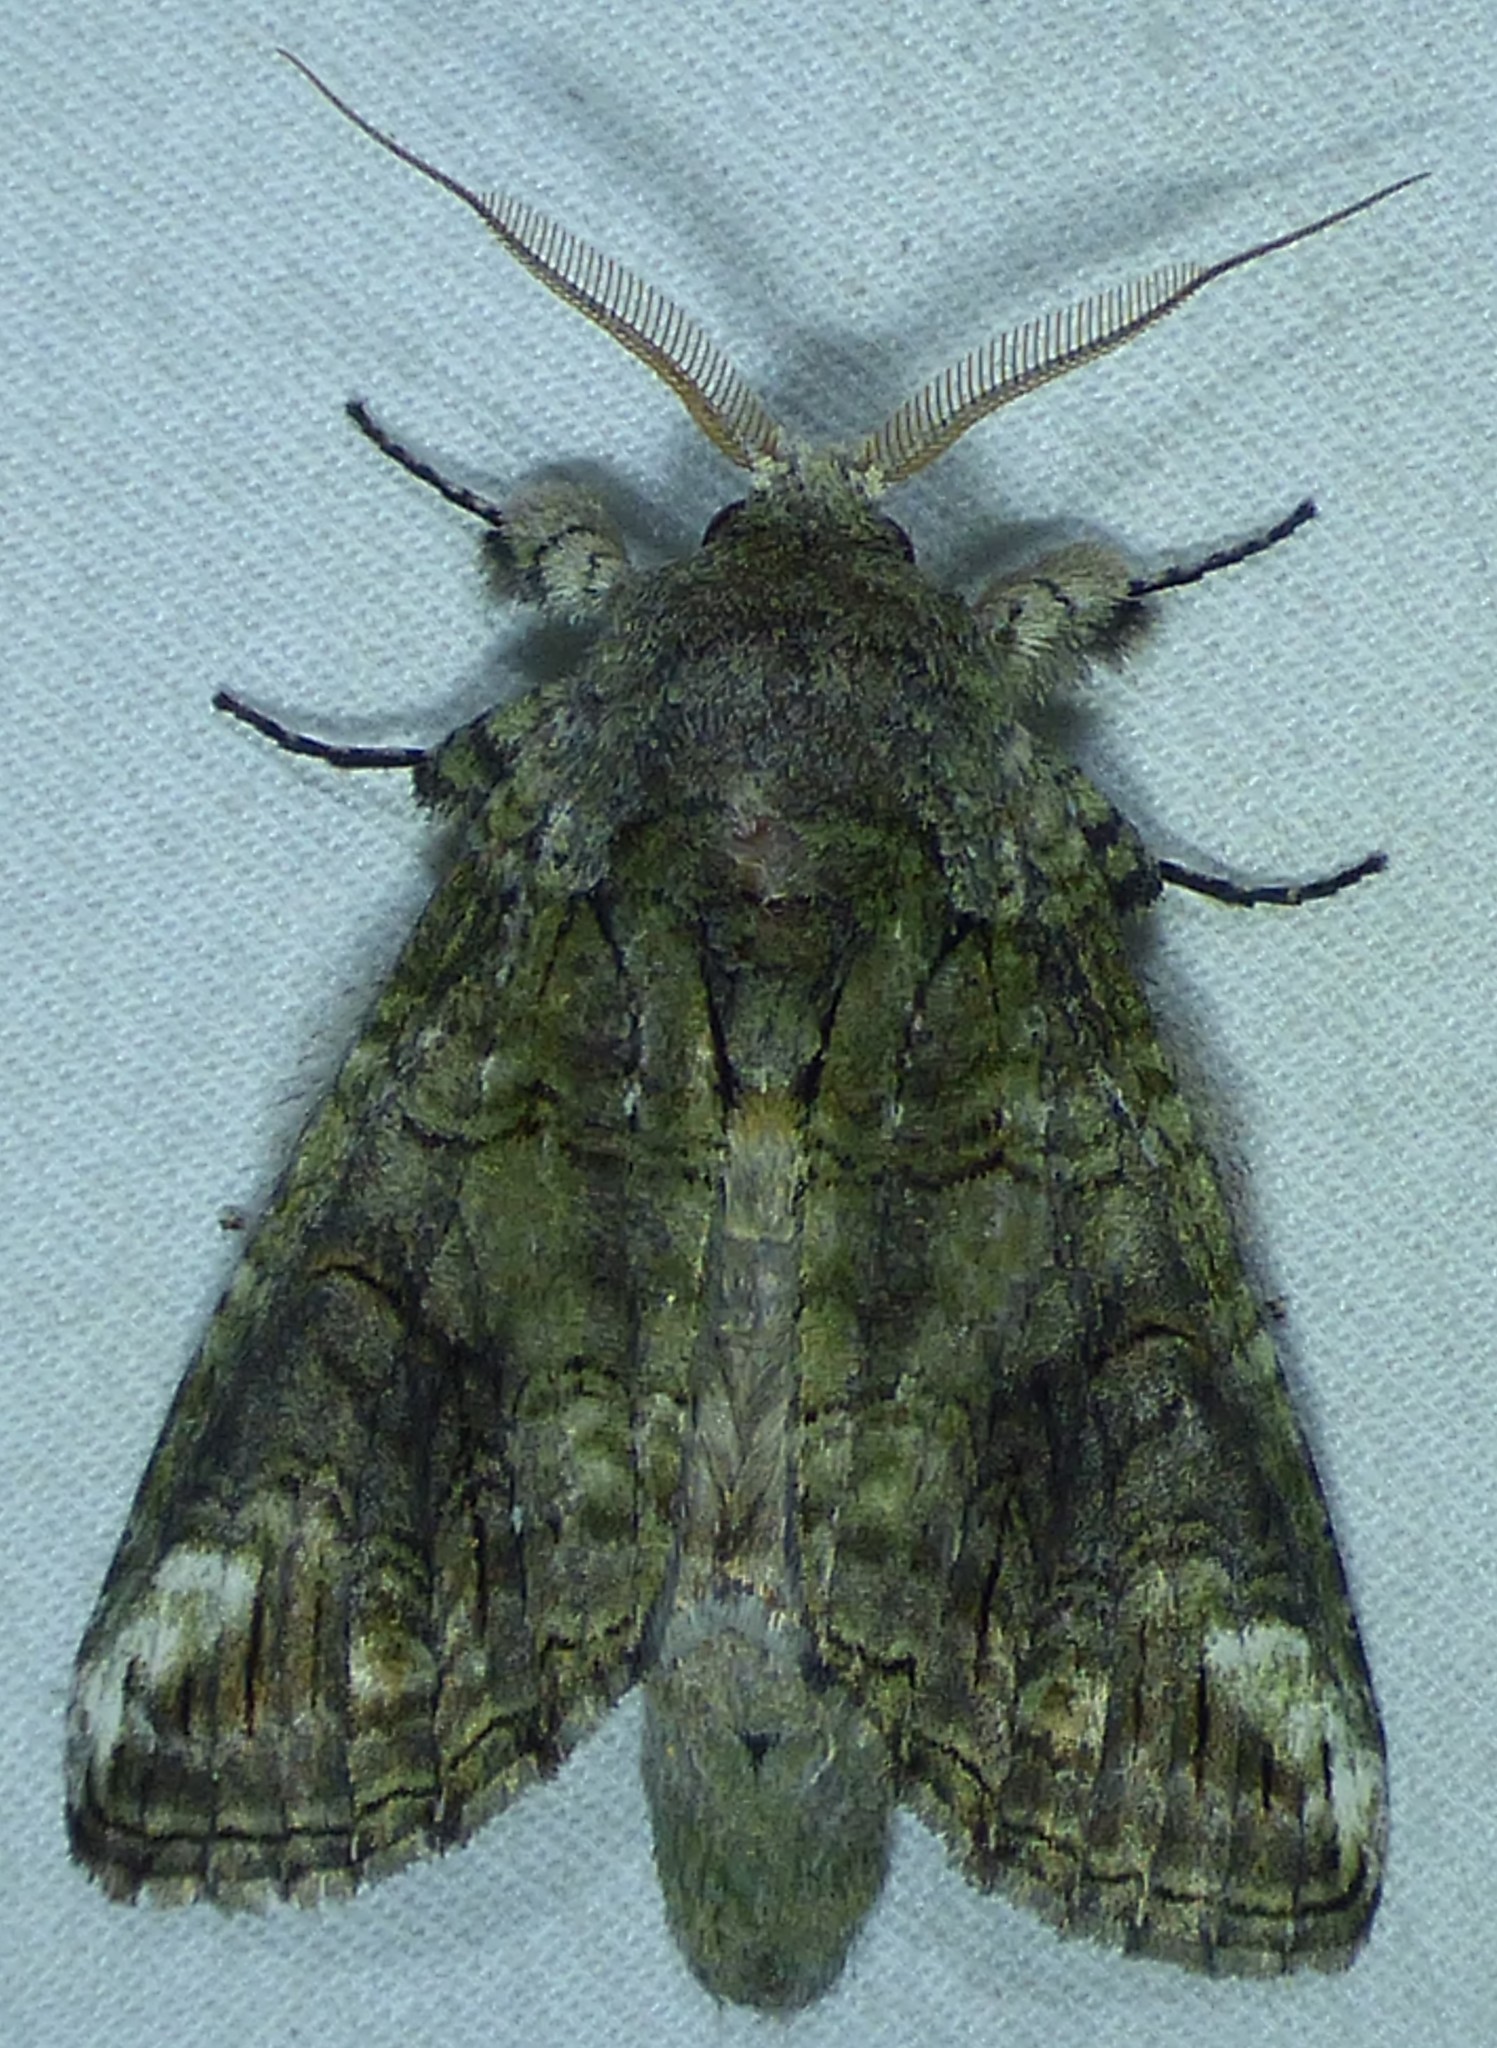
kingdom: Animalia
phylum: Arthropoda
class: Insecta
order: Lepidoptera
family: Notodontidae
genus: Heterocampa
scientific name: Heterocampa obliqua
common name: Oblique heterocampa
